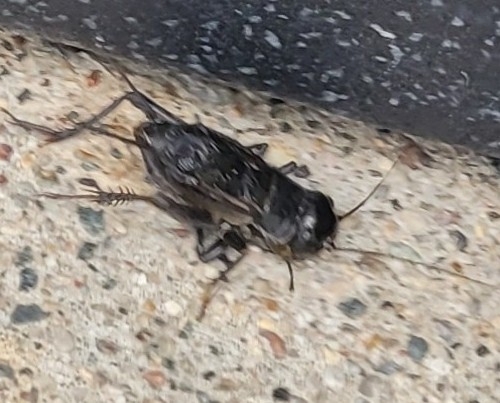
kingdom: Animalia
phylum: Arthropoda
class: Insecta
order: Orthoptera
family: Gryllidae
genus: Gryllus
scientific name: Gryllus pennsylvanicus
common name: Fall field cricket
